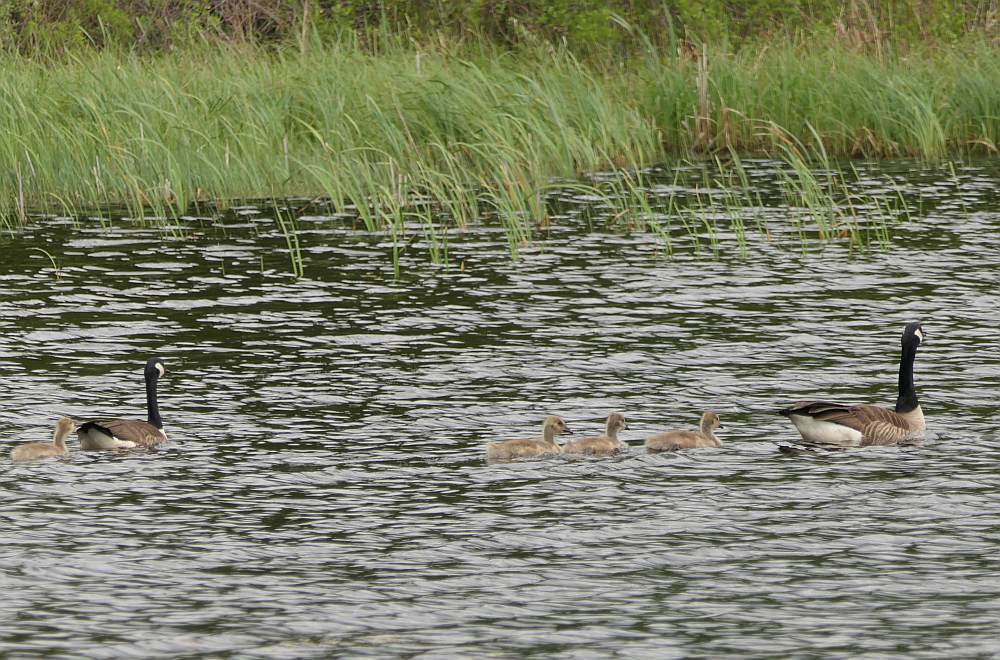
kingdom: Animalia
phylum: Chordata
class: Aves
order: Anseriformes
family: Anatidae
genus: Branta
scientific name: Branta canadensis
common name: Canada goose
